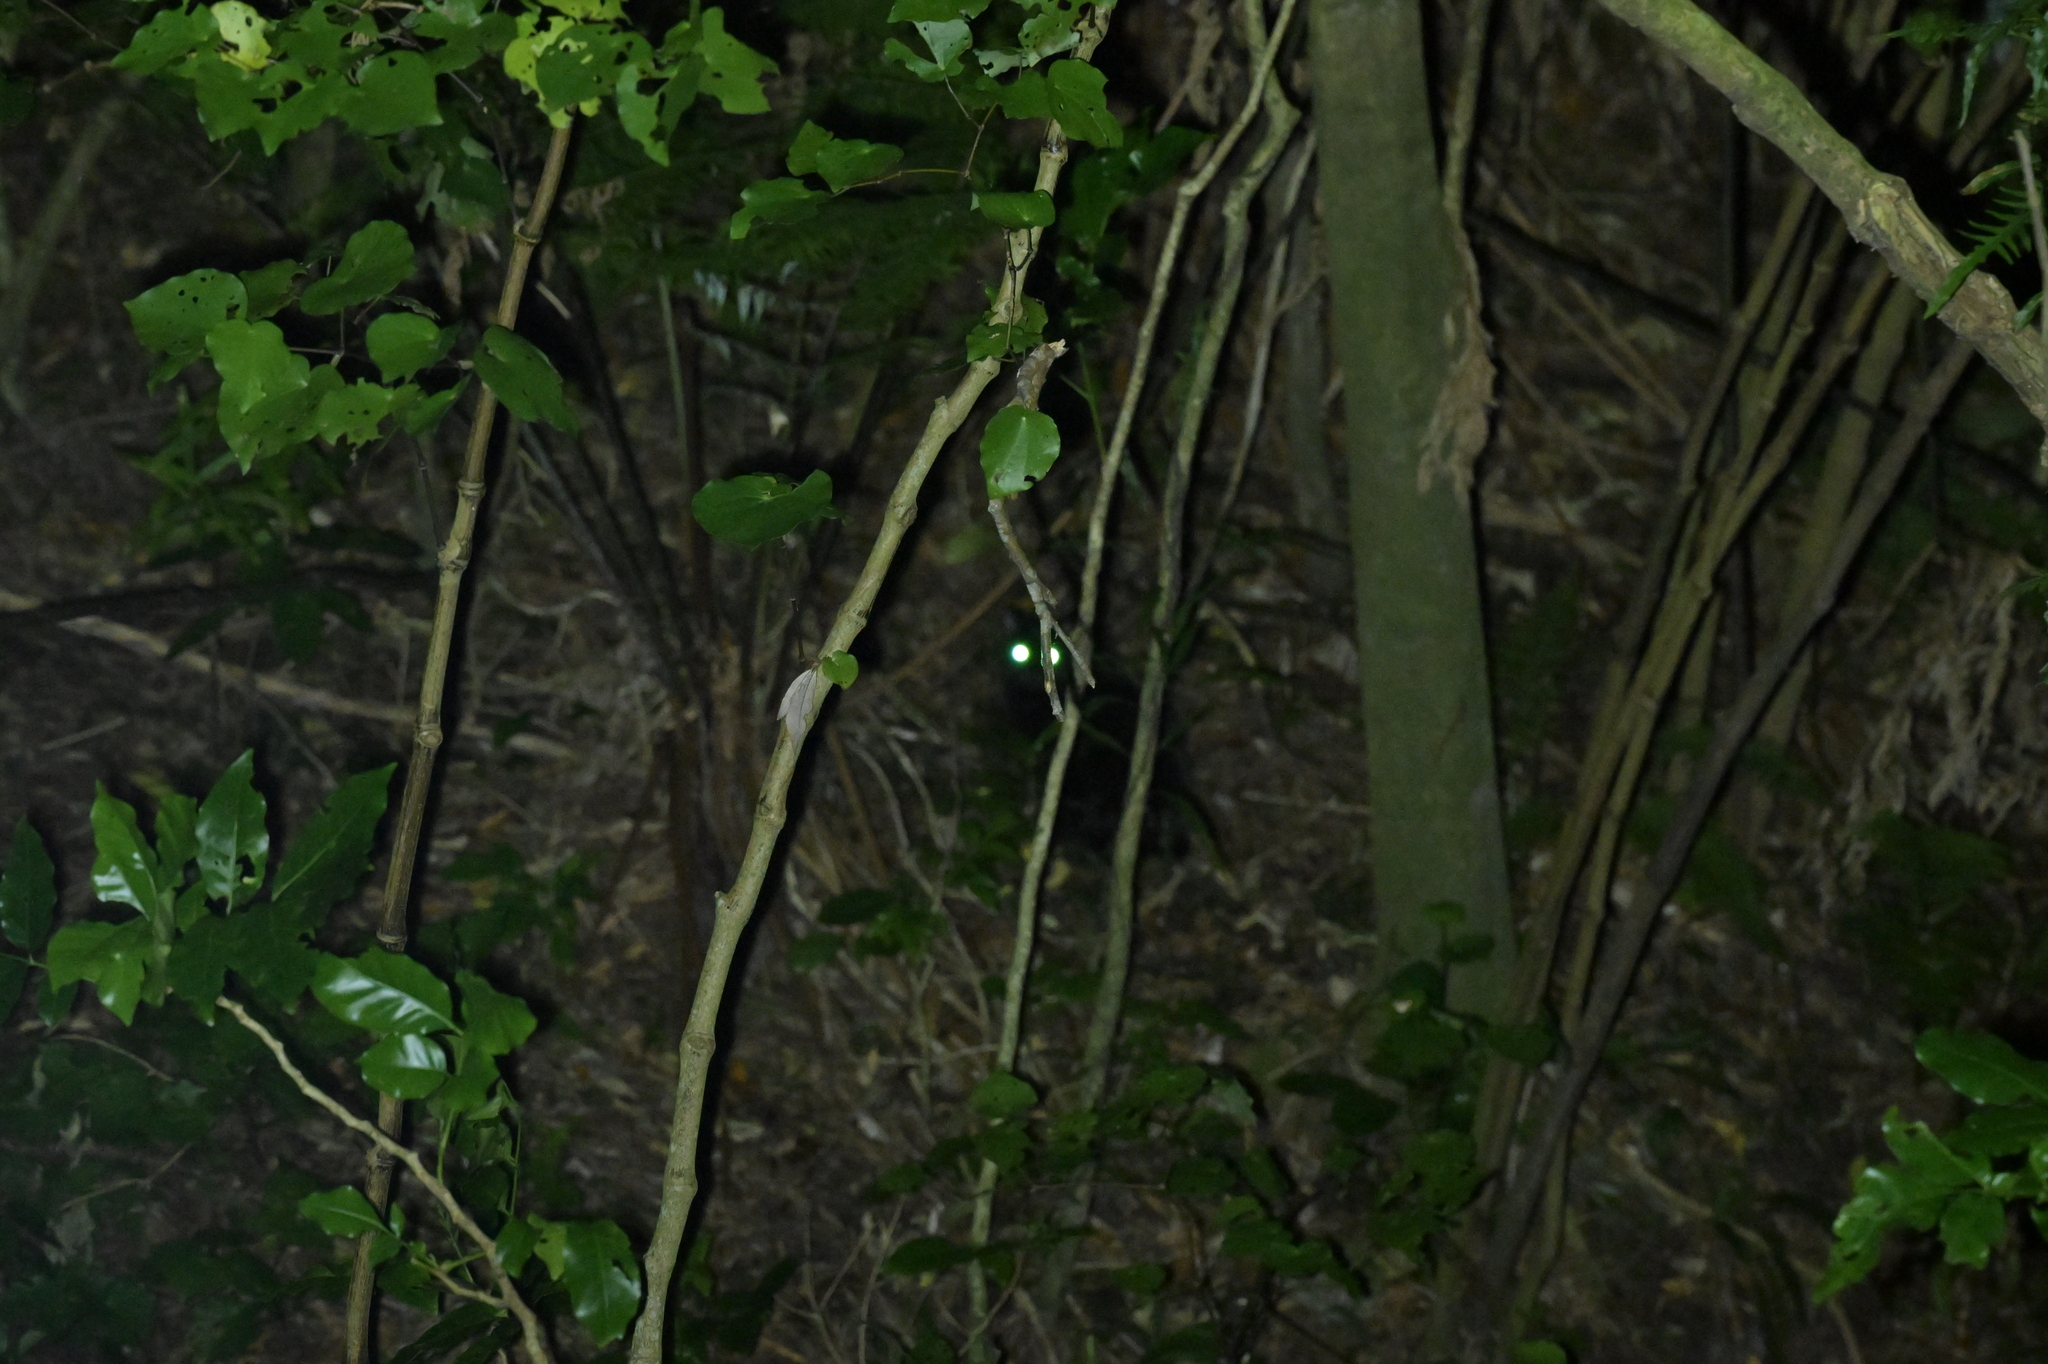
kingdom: Animalia
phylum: Chordata
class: Mammalia
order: Carnivora
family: Felidae
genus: Felis
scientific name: Felis catus
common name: Domestic cat
